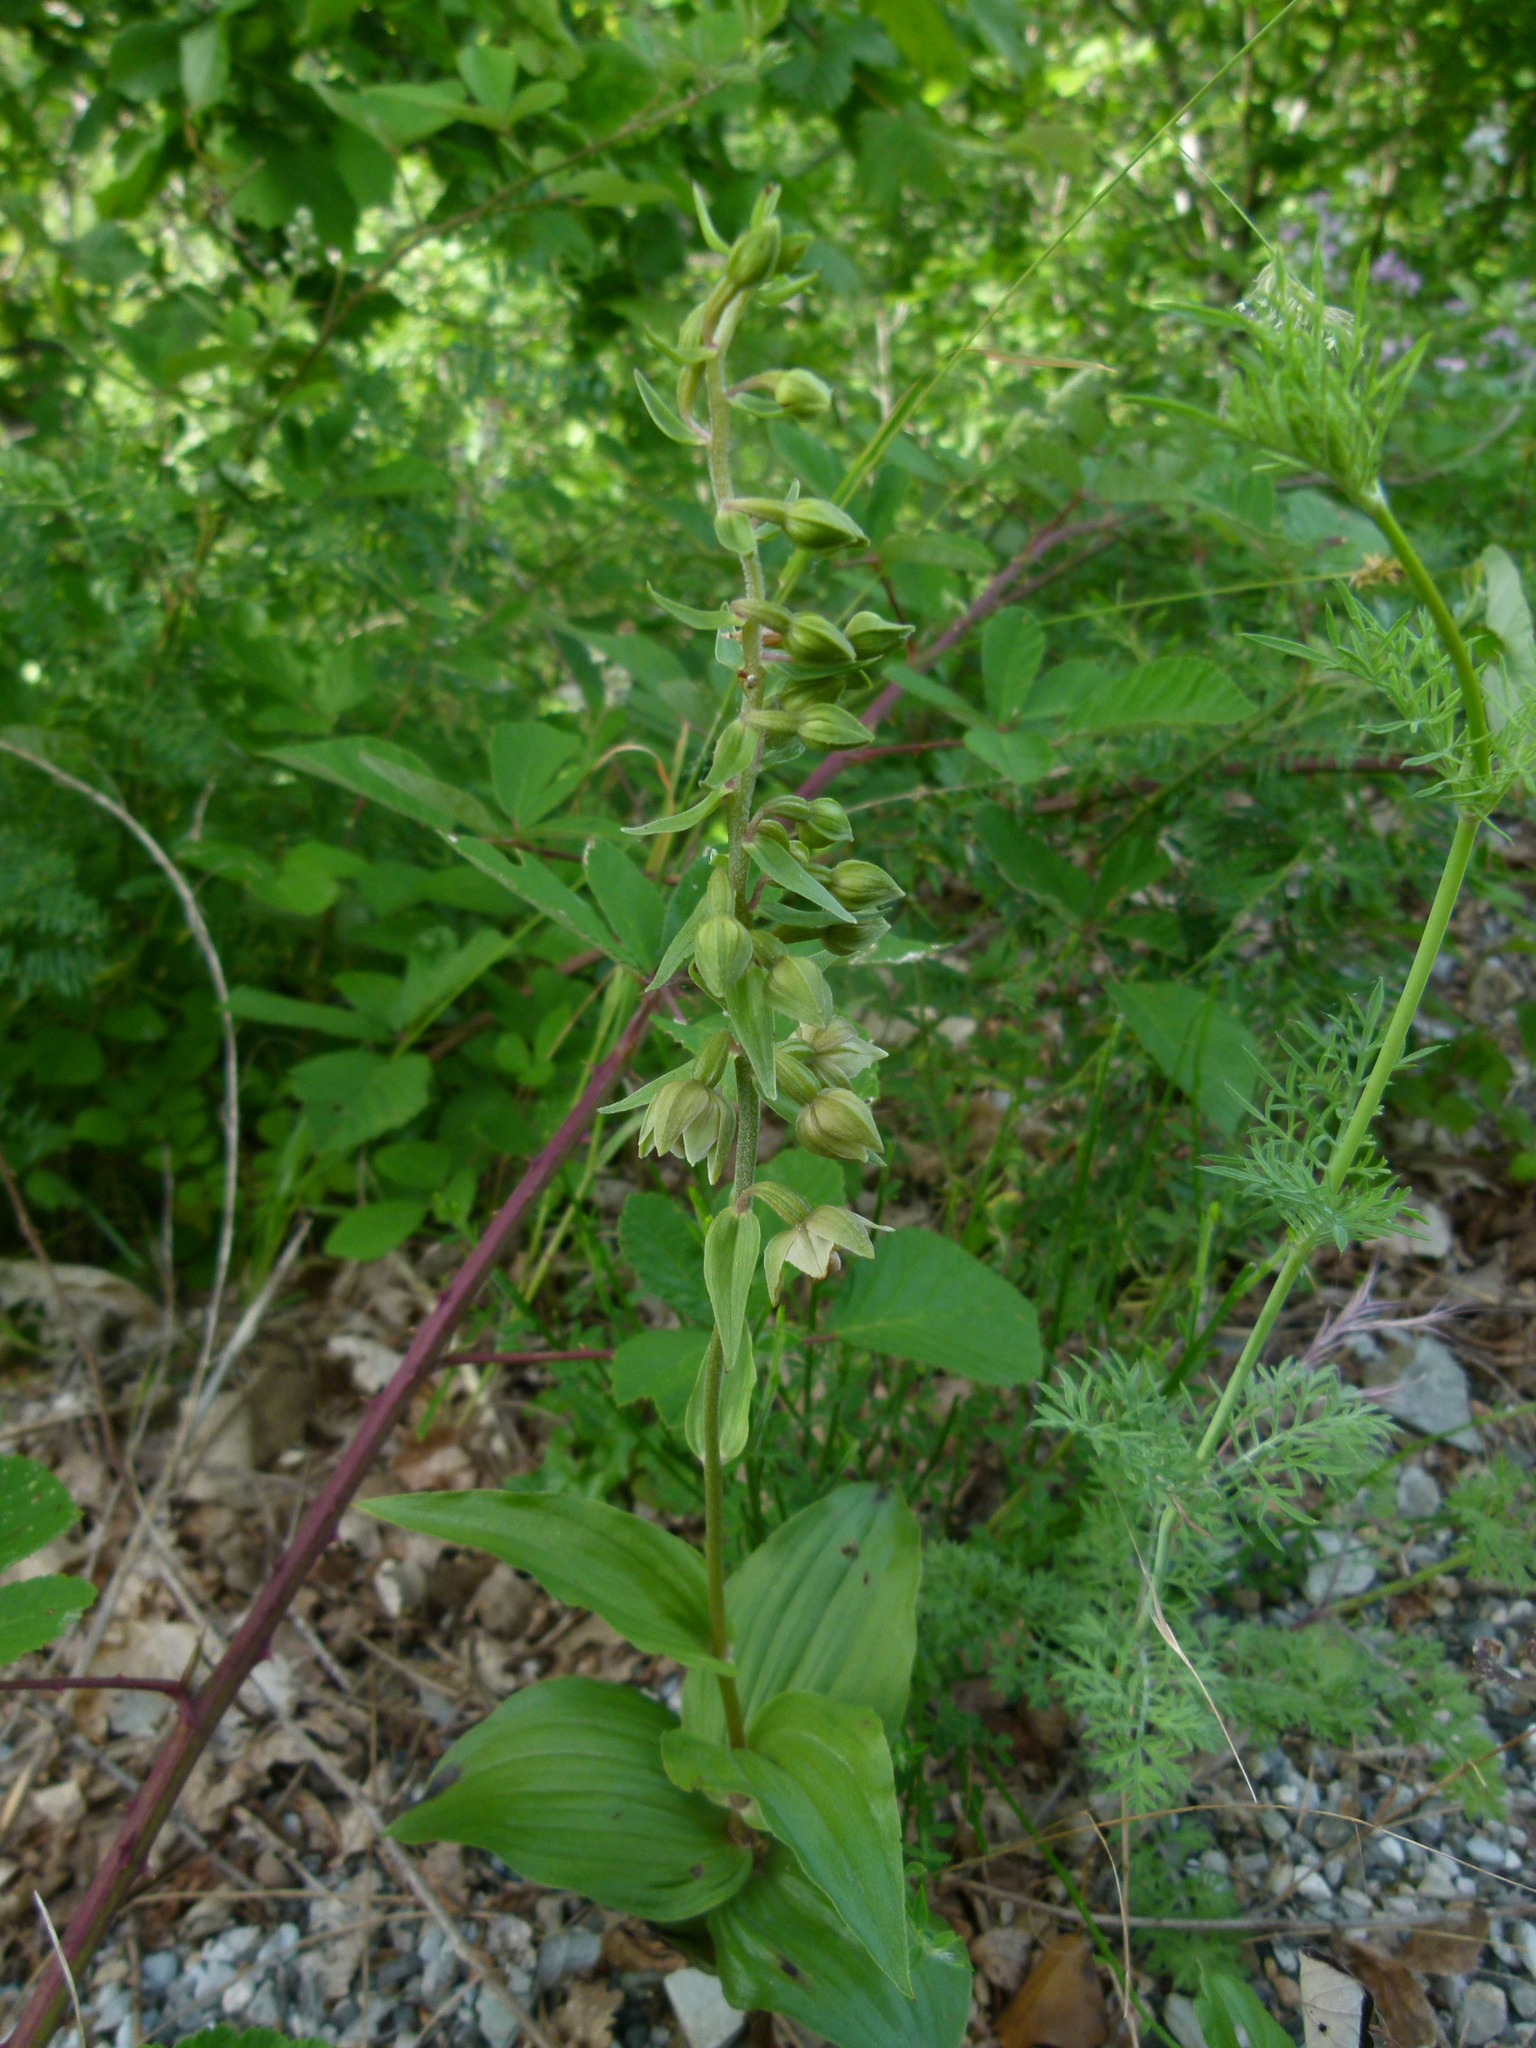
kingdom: Plantae
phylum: Tracheophyta
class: Liliopsida
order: Asparagales
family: Orchidaceae
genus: Epipactis
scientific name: Epipactis helleborine
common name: Broad-leaved helleborine
